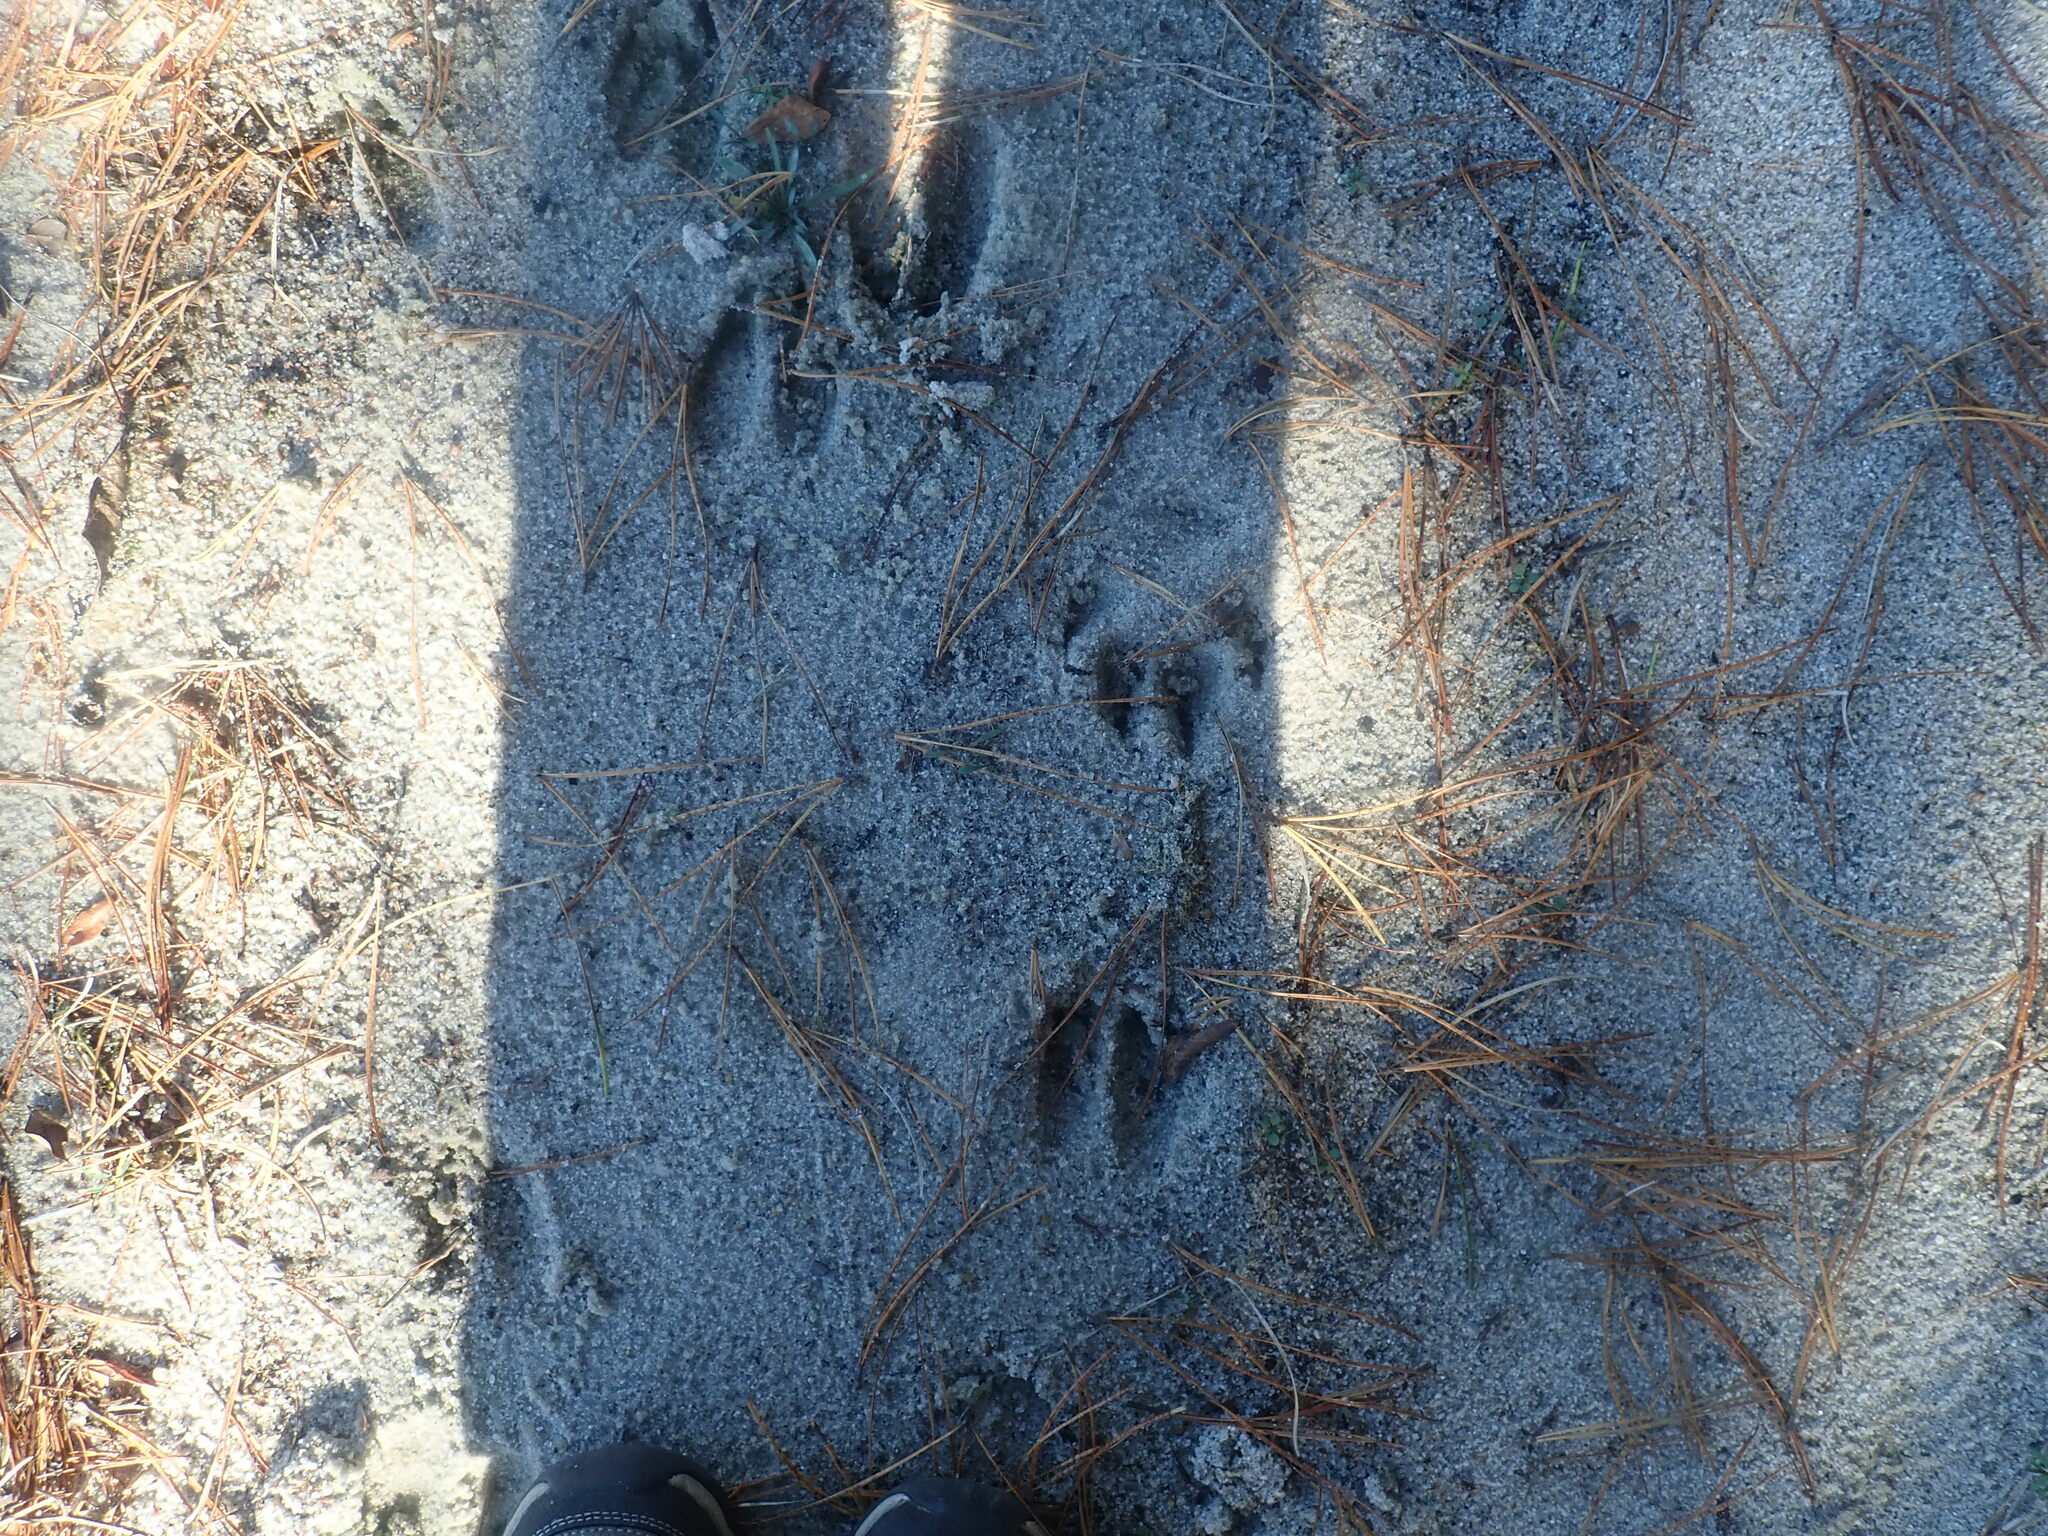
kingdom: Animalia
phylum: Chordata
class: Mammalia
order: Artiodactyla
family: Cervidae
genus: Odocoileus
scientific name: Odocoileus virginianus
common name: White-tailed deer
